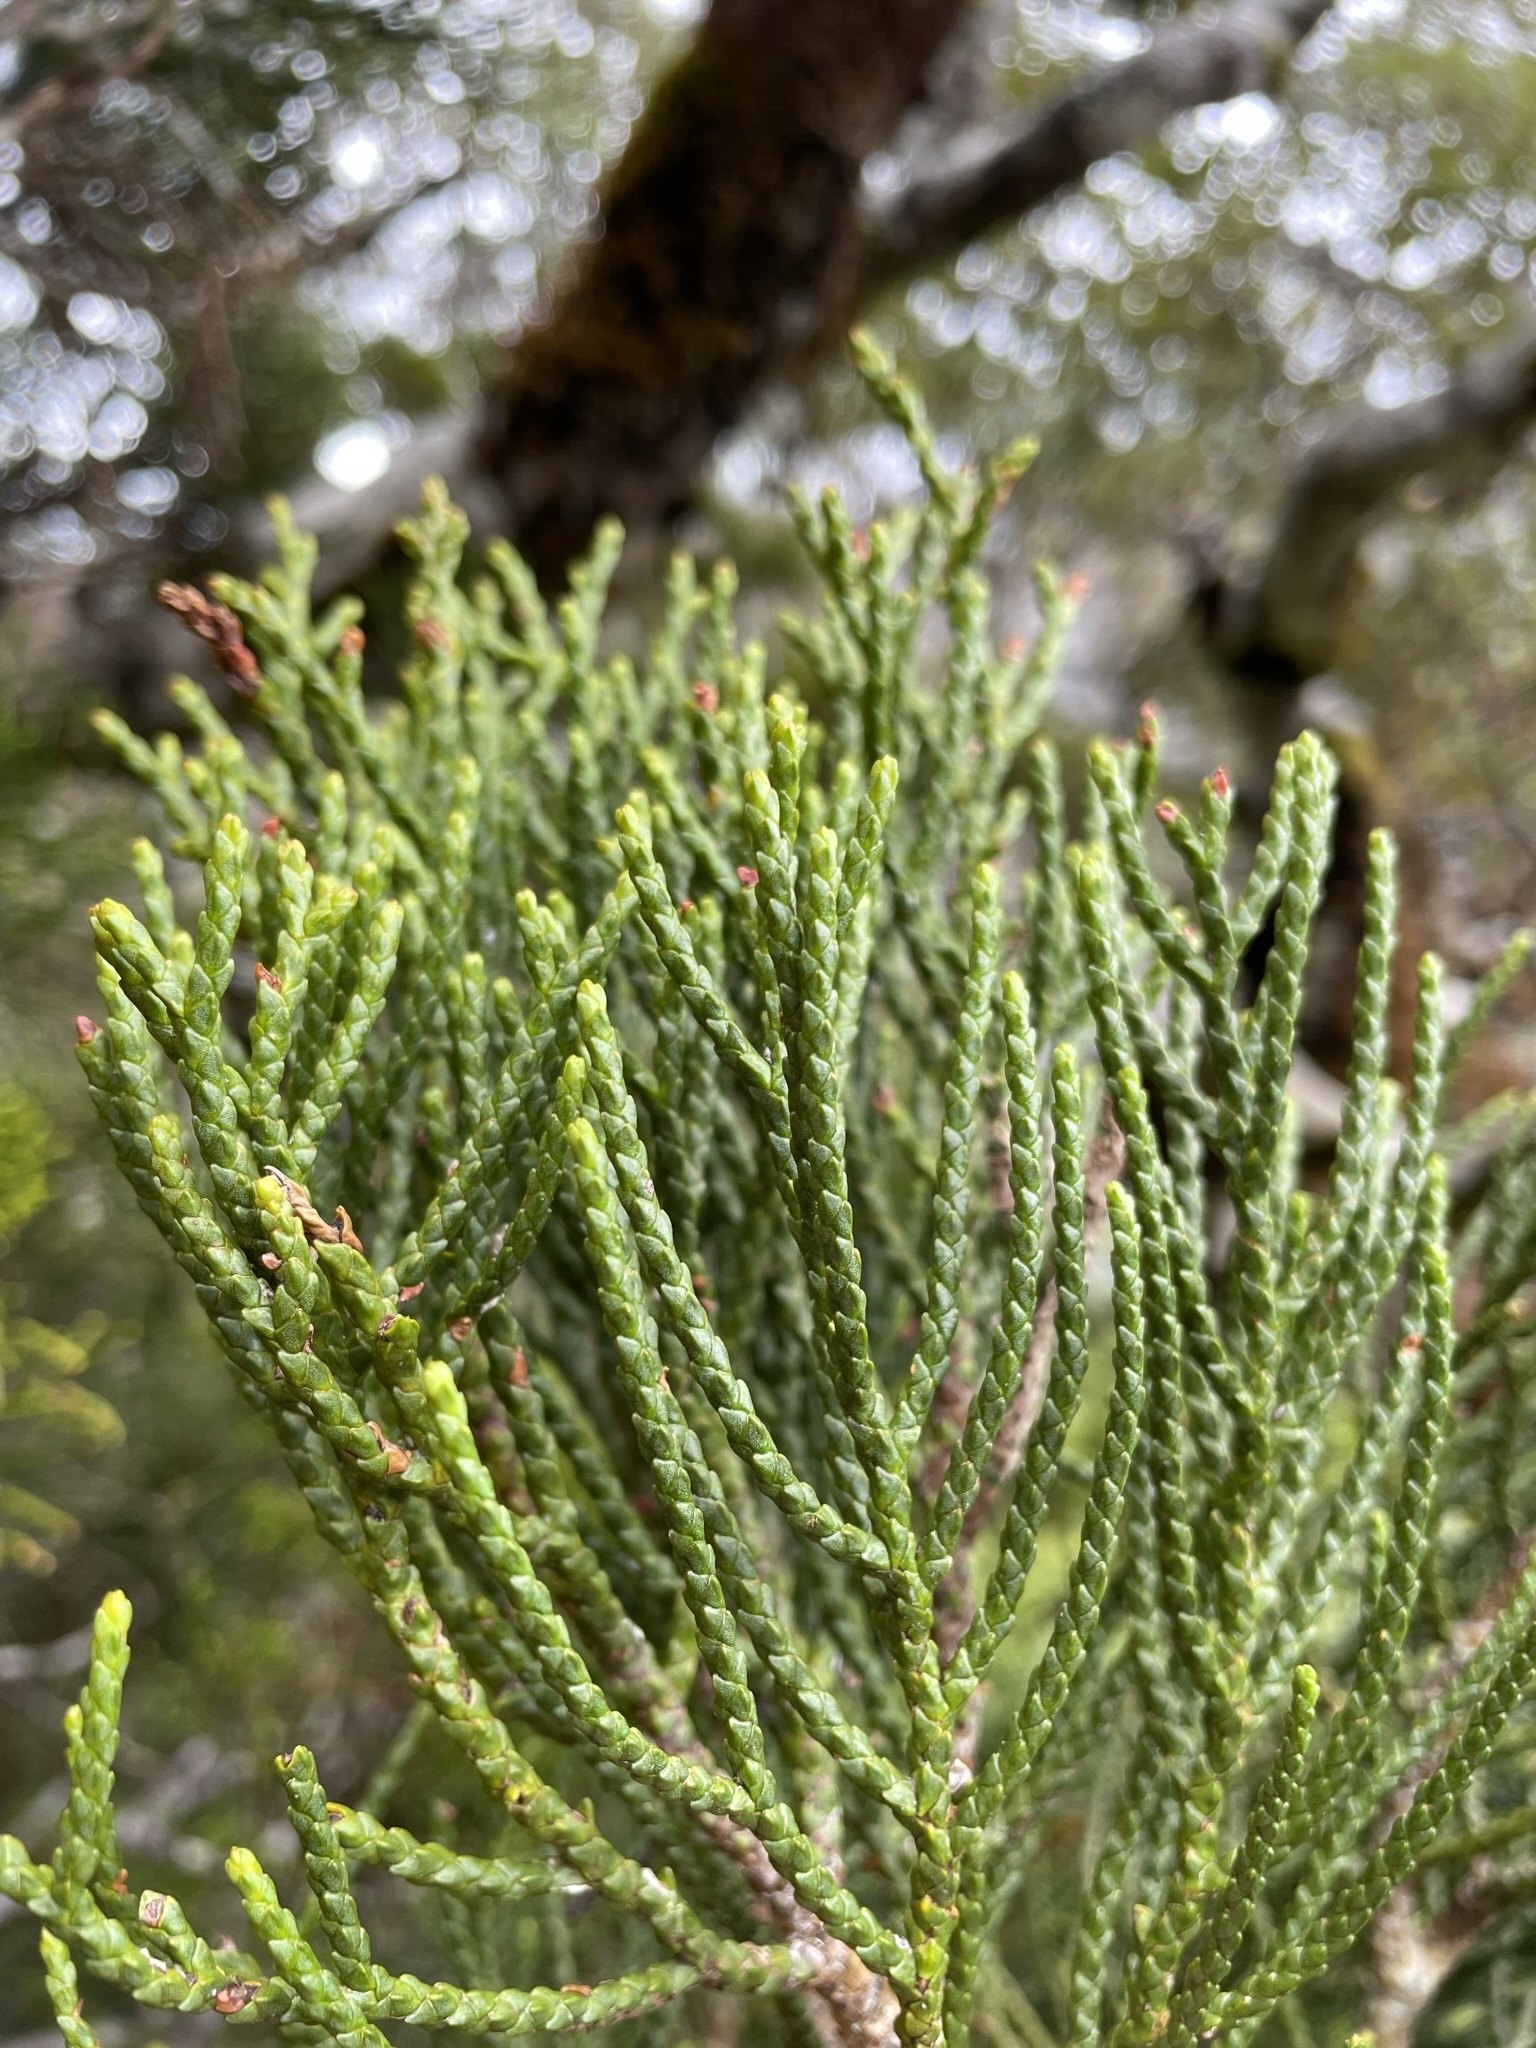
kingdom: Plantae
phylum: Tracheophyta
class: Pinopsida
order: Pinales
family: Podocarpaceae
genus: Halocarpus
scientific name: Halocarpus biformis
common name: Alpine tarwood
